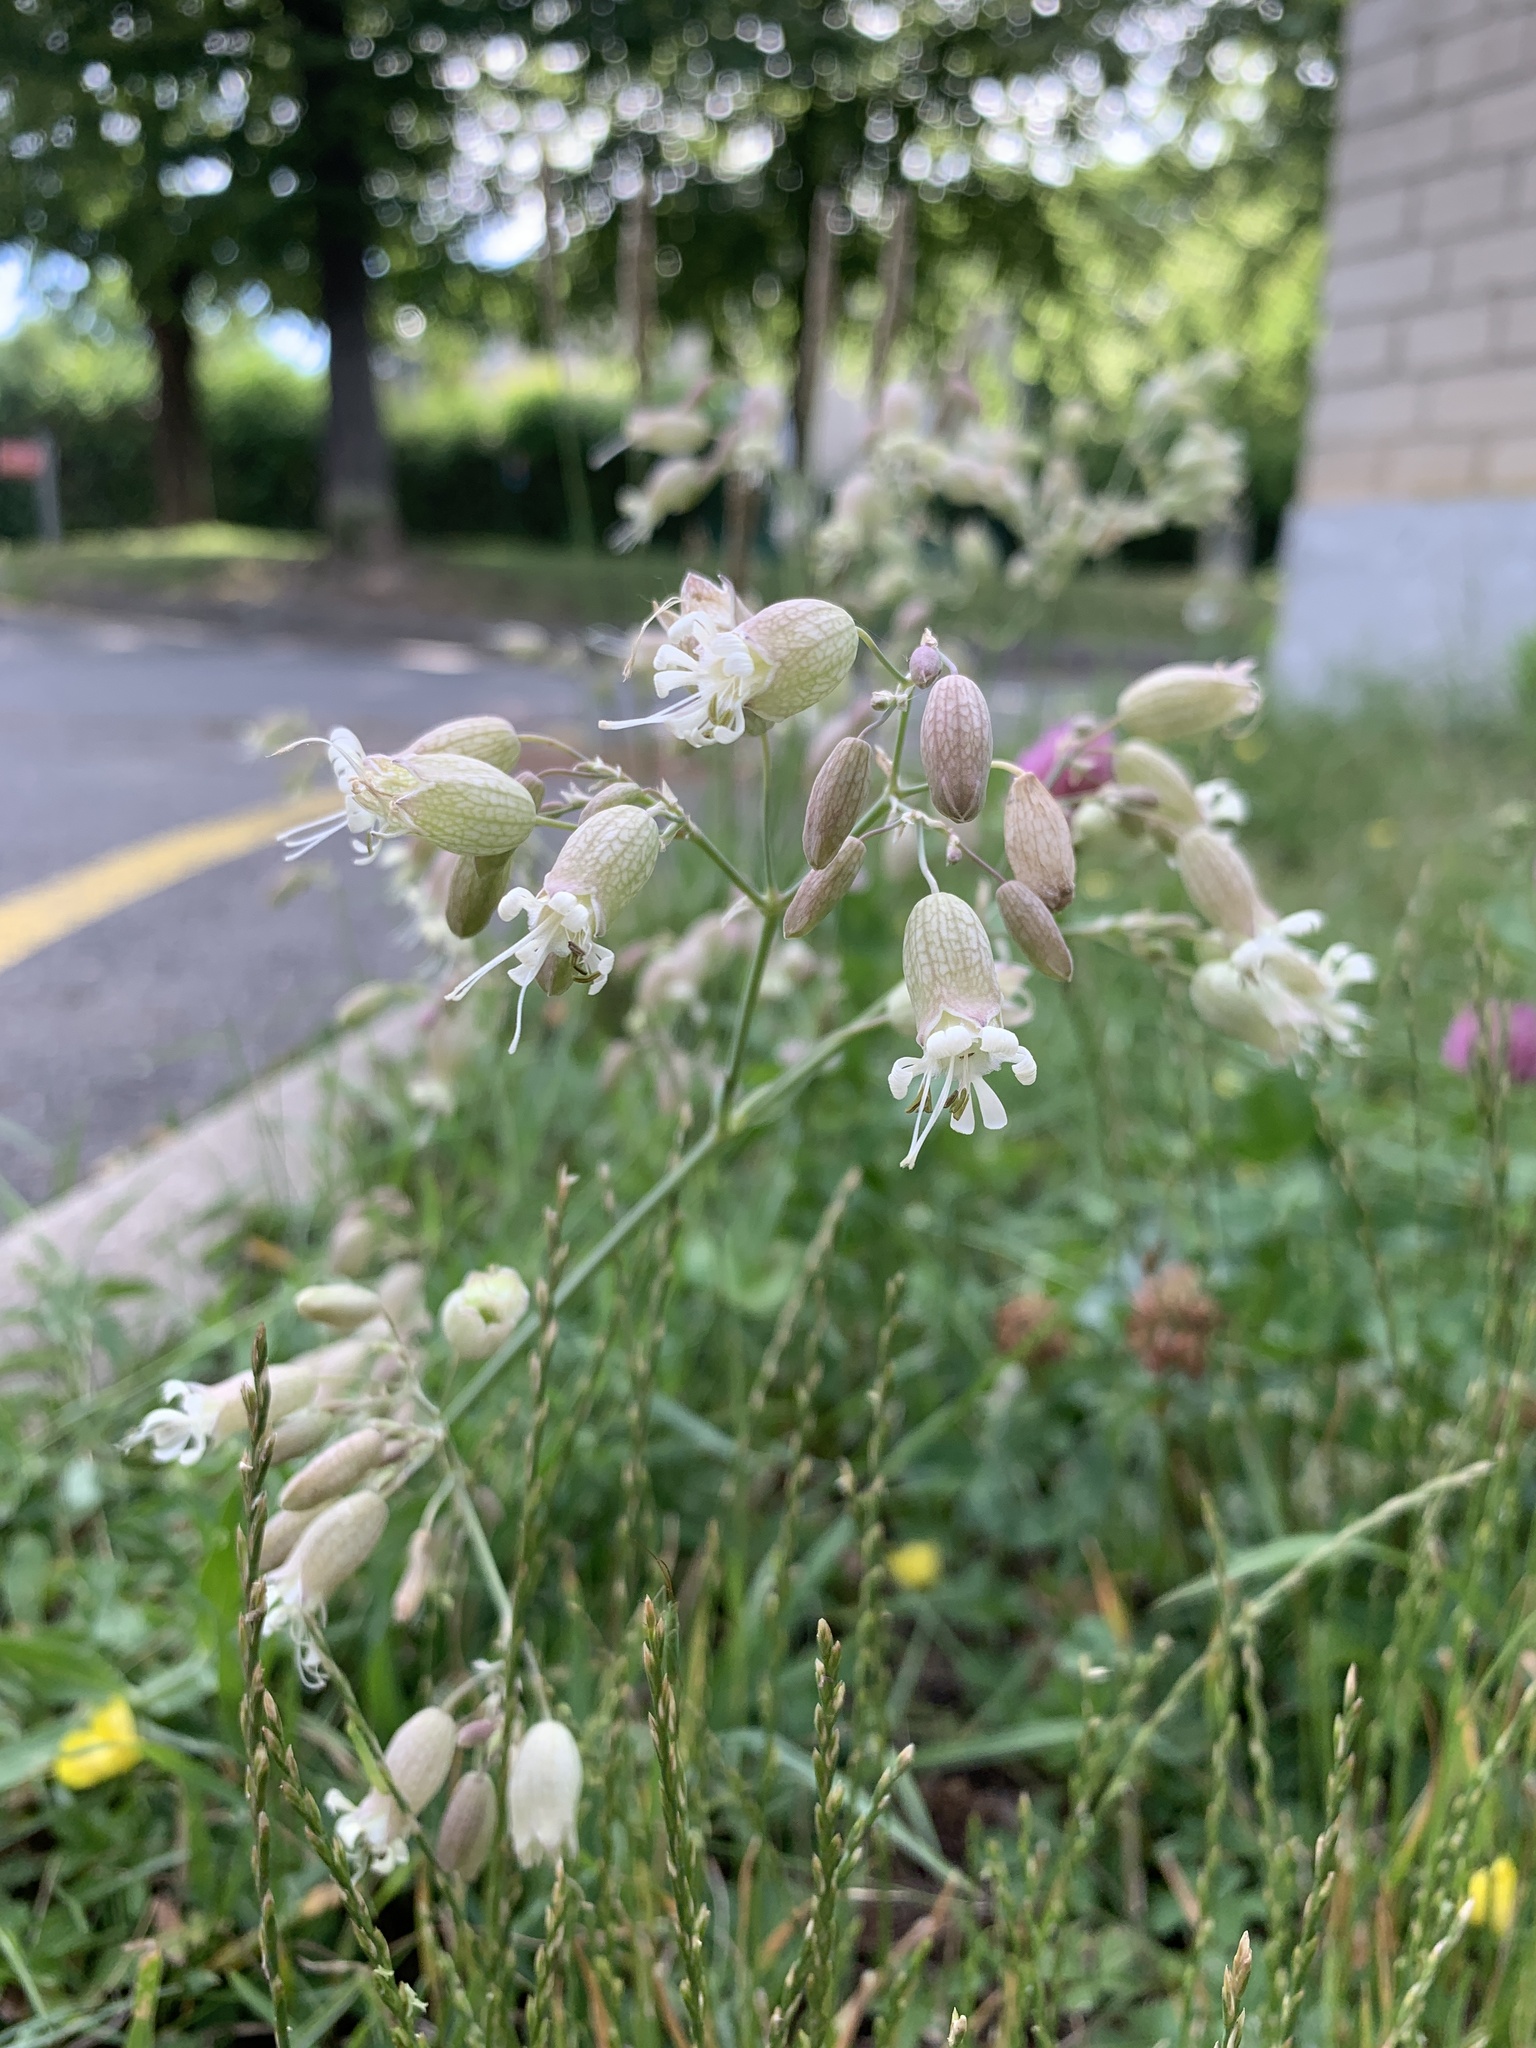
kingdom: Plantae
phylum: Tracheophyta
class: Magnoliopsida
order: Caryophyllales
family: Caryophyllaceae
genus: Silene
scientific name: Silene vulgaris
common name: Bladder campion
